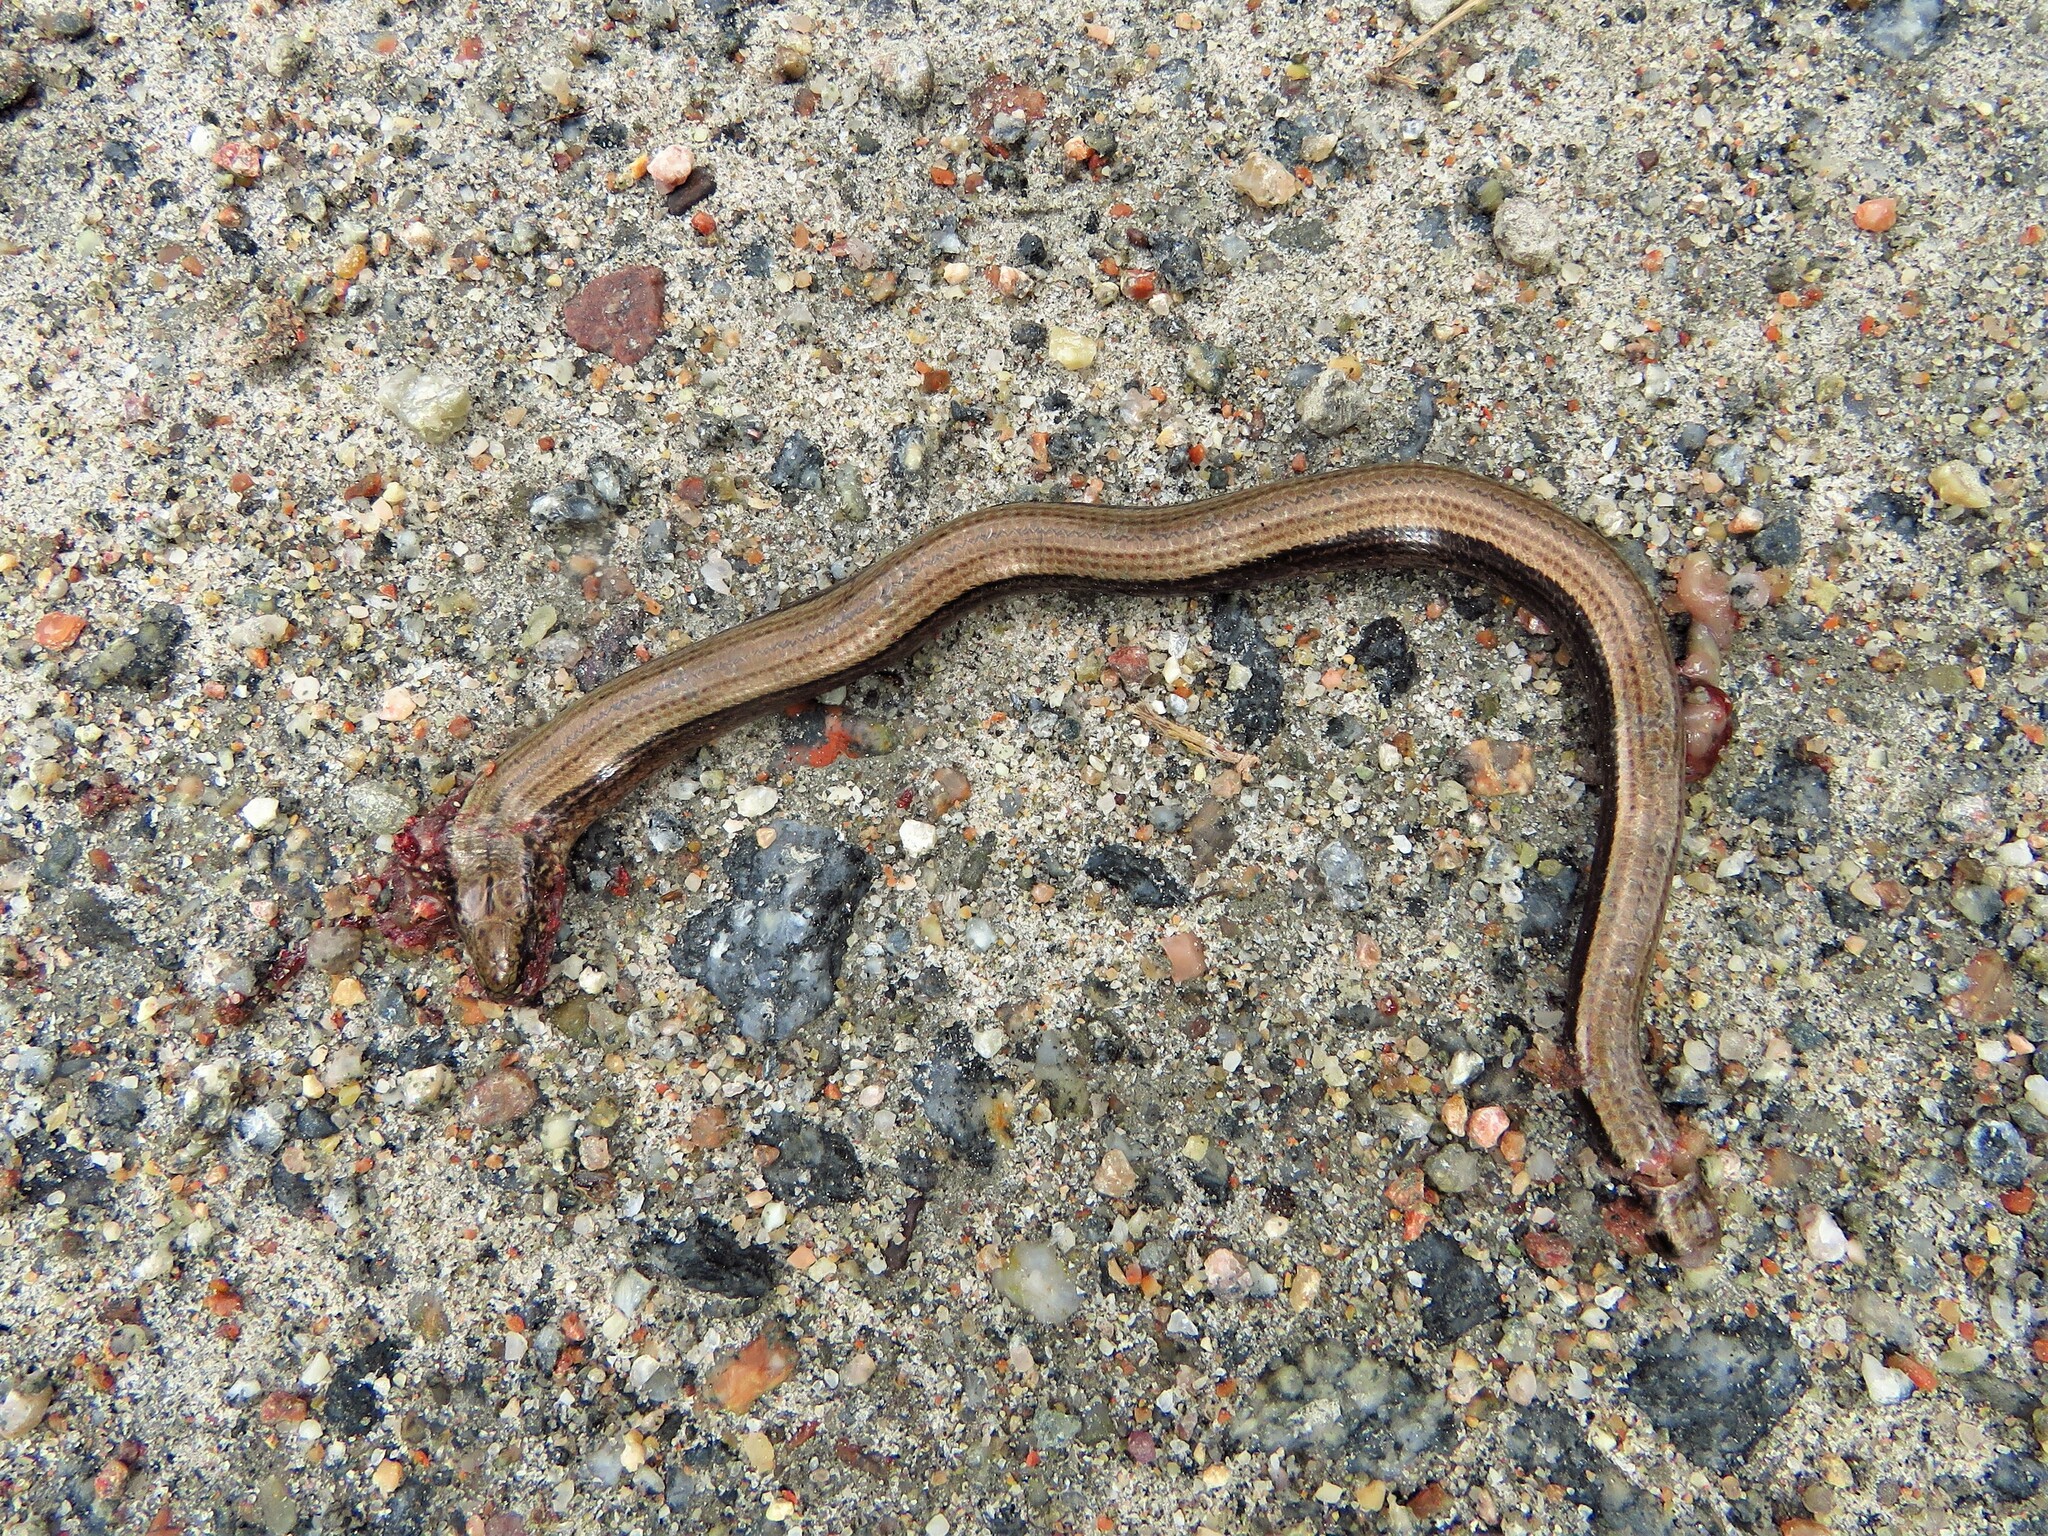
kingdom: Animalia
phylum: Chordata
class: Squamata
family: Anguidae
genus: Anguis
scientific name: Anguis fragilis
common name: Slow worm
